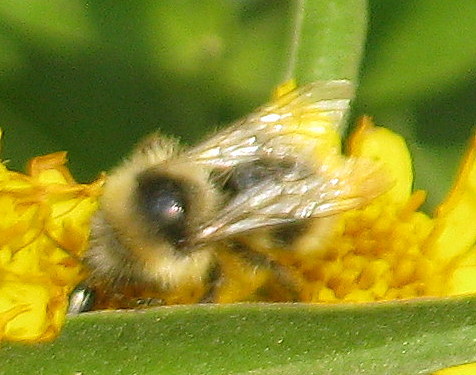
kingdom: Animalia
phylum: Arthropoda
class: Insecta
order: Hymenoptera
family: Apidae
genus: Bombus
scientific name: Bombus
